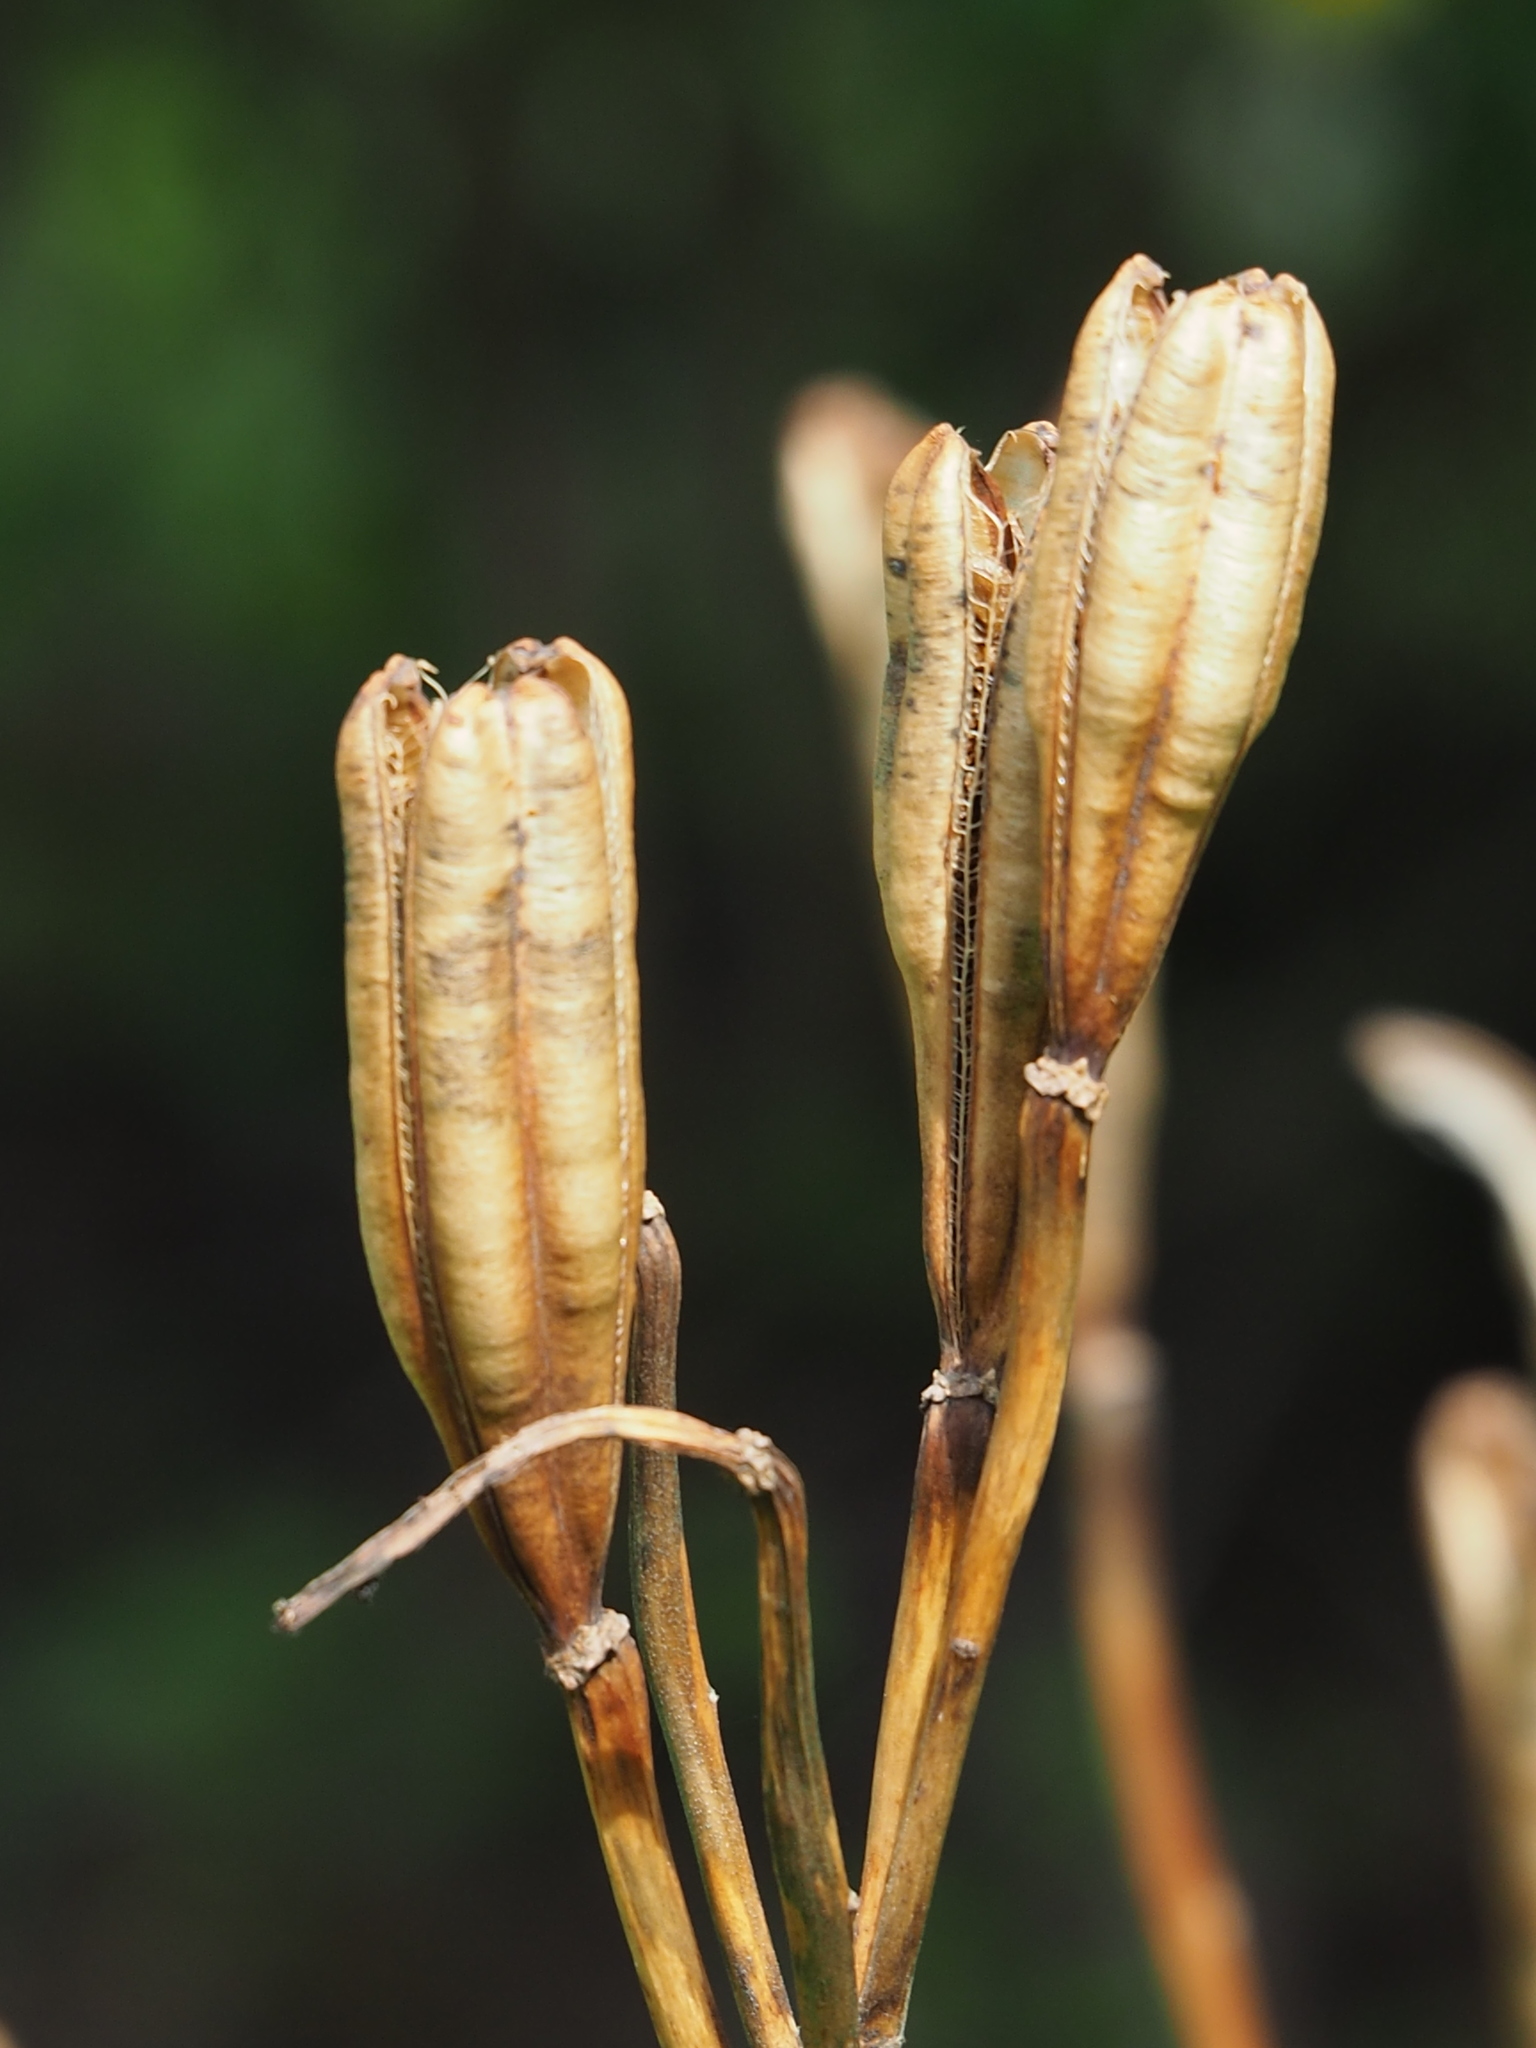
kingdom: Plantae
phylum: Tracheophyta
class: Liliopsida
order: Liliales
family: Liliaceae
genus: Lilium
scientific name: Lilium longiflorum
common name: Easter lily
